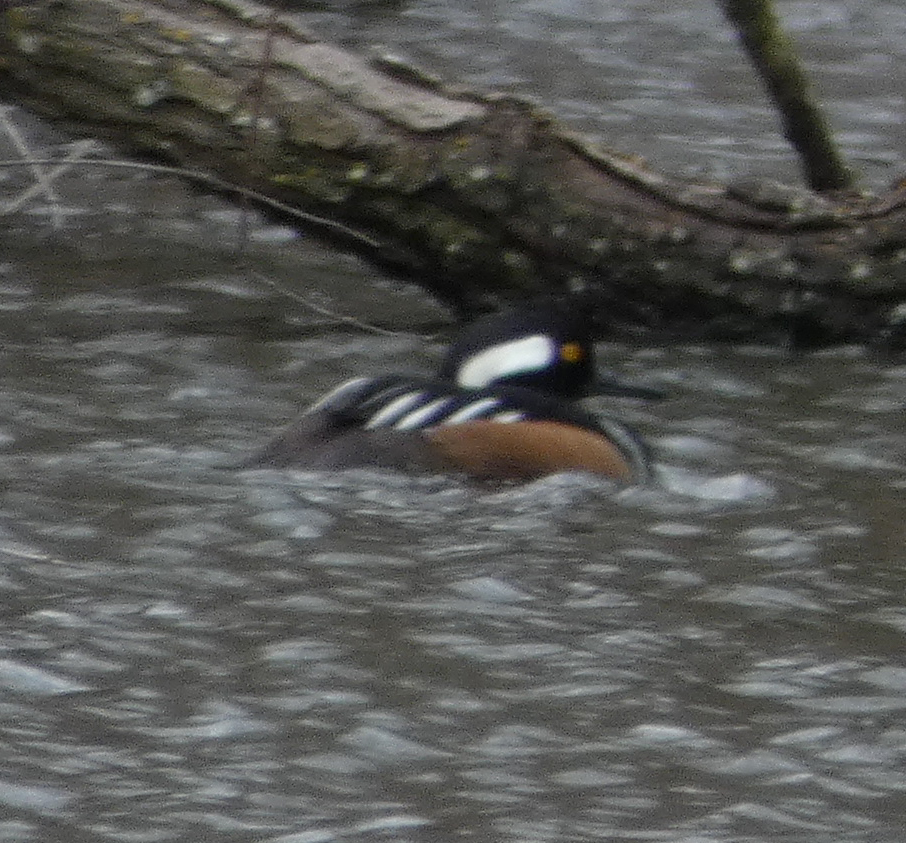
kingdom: Animalia
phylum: Chordata
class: Aves
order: Anseriformes
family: Anatidae
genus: Lophodytes
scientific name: Lophodytes cucullatus
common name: Hooded merganser
